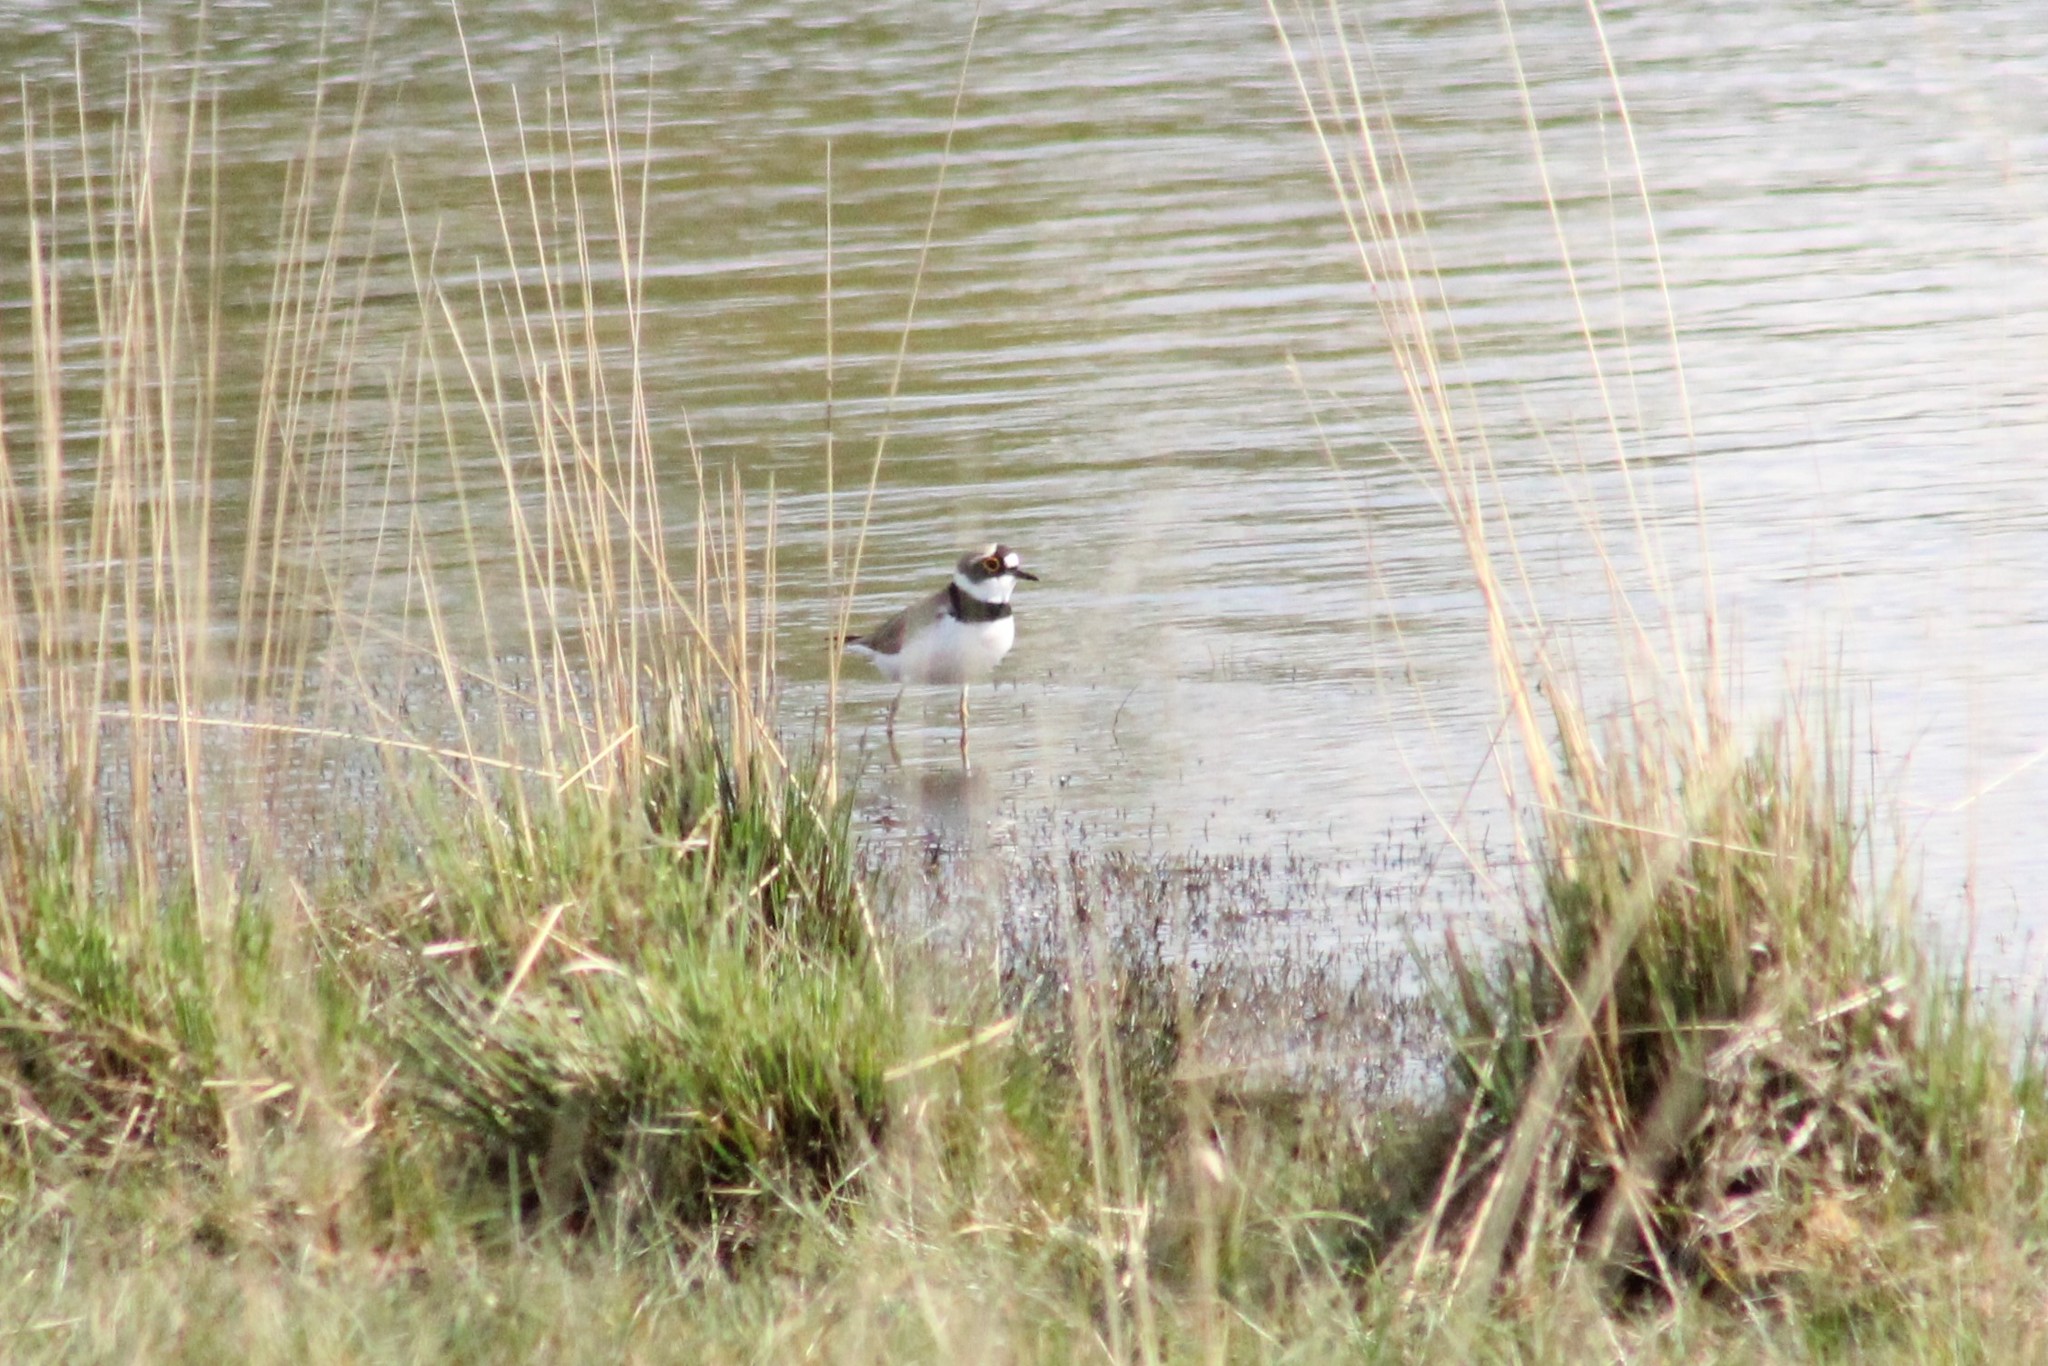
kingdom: Animalia
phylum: Chordata
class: Aves
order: Charadriiformes
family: Charadriidae
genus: Charadrius
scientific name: Charadrius dubius
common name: Little ringed plover
